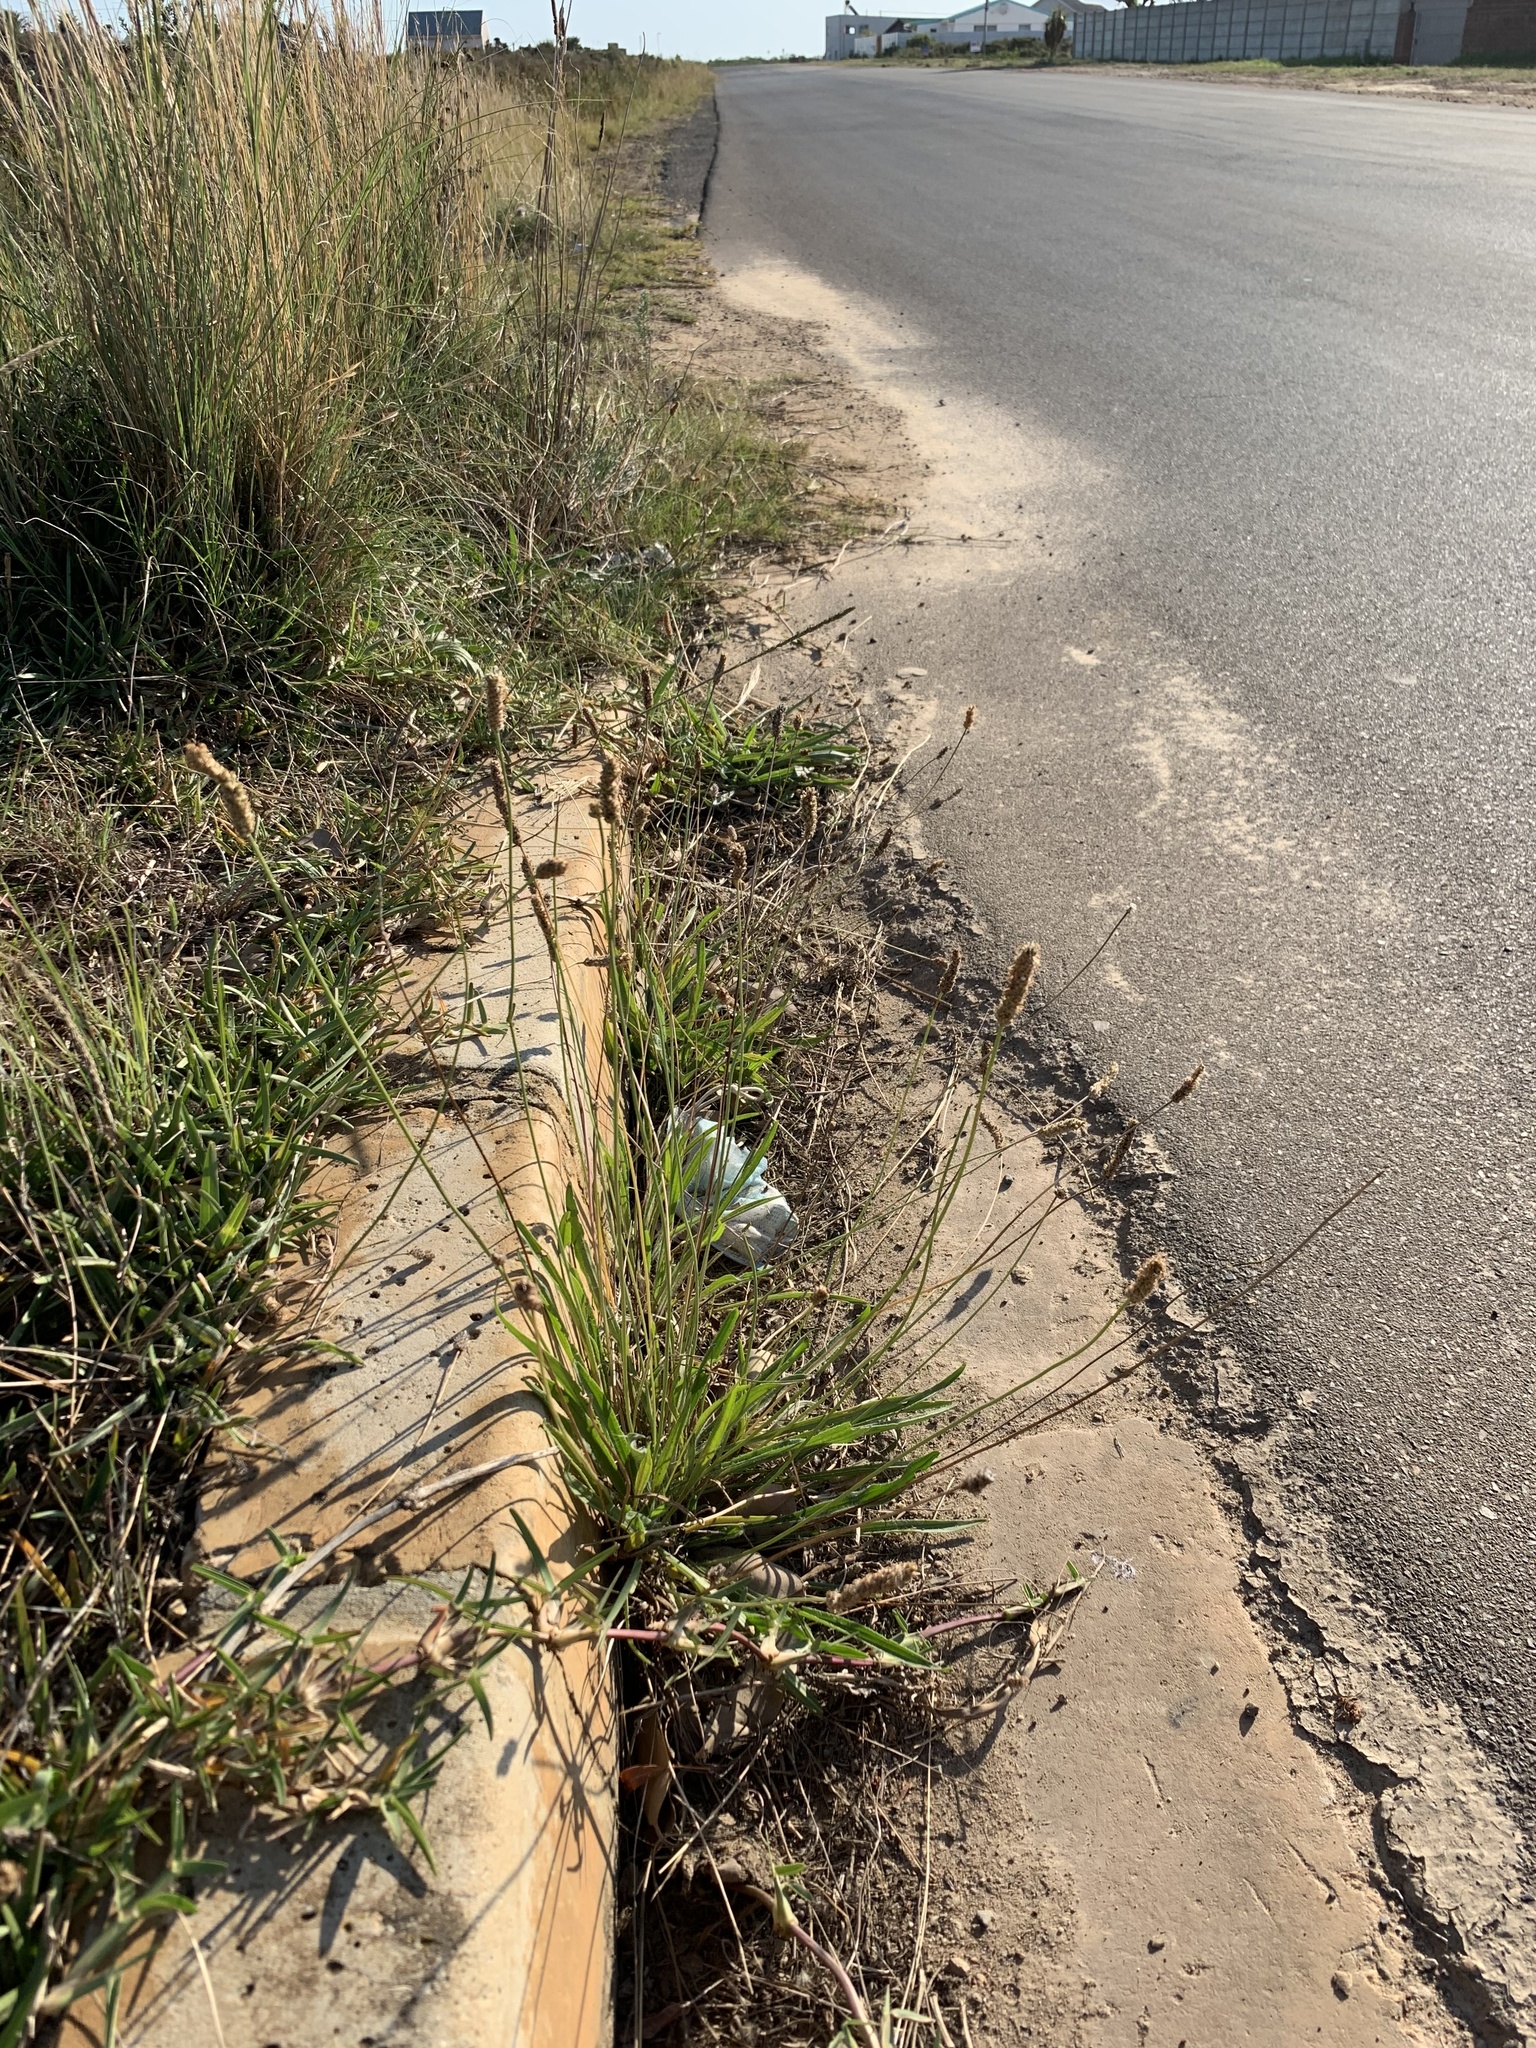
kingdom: Plantae
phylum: Tracheophyta
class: Magnoliopsida
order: Lamiales
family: Plantaginaceae
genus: Plantago
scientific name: Plantago lanceolata
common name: Ribwort plantain
